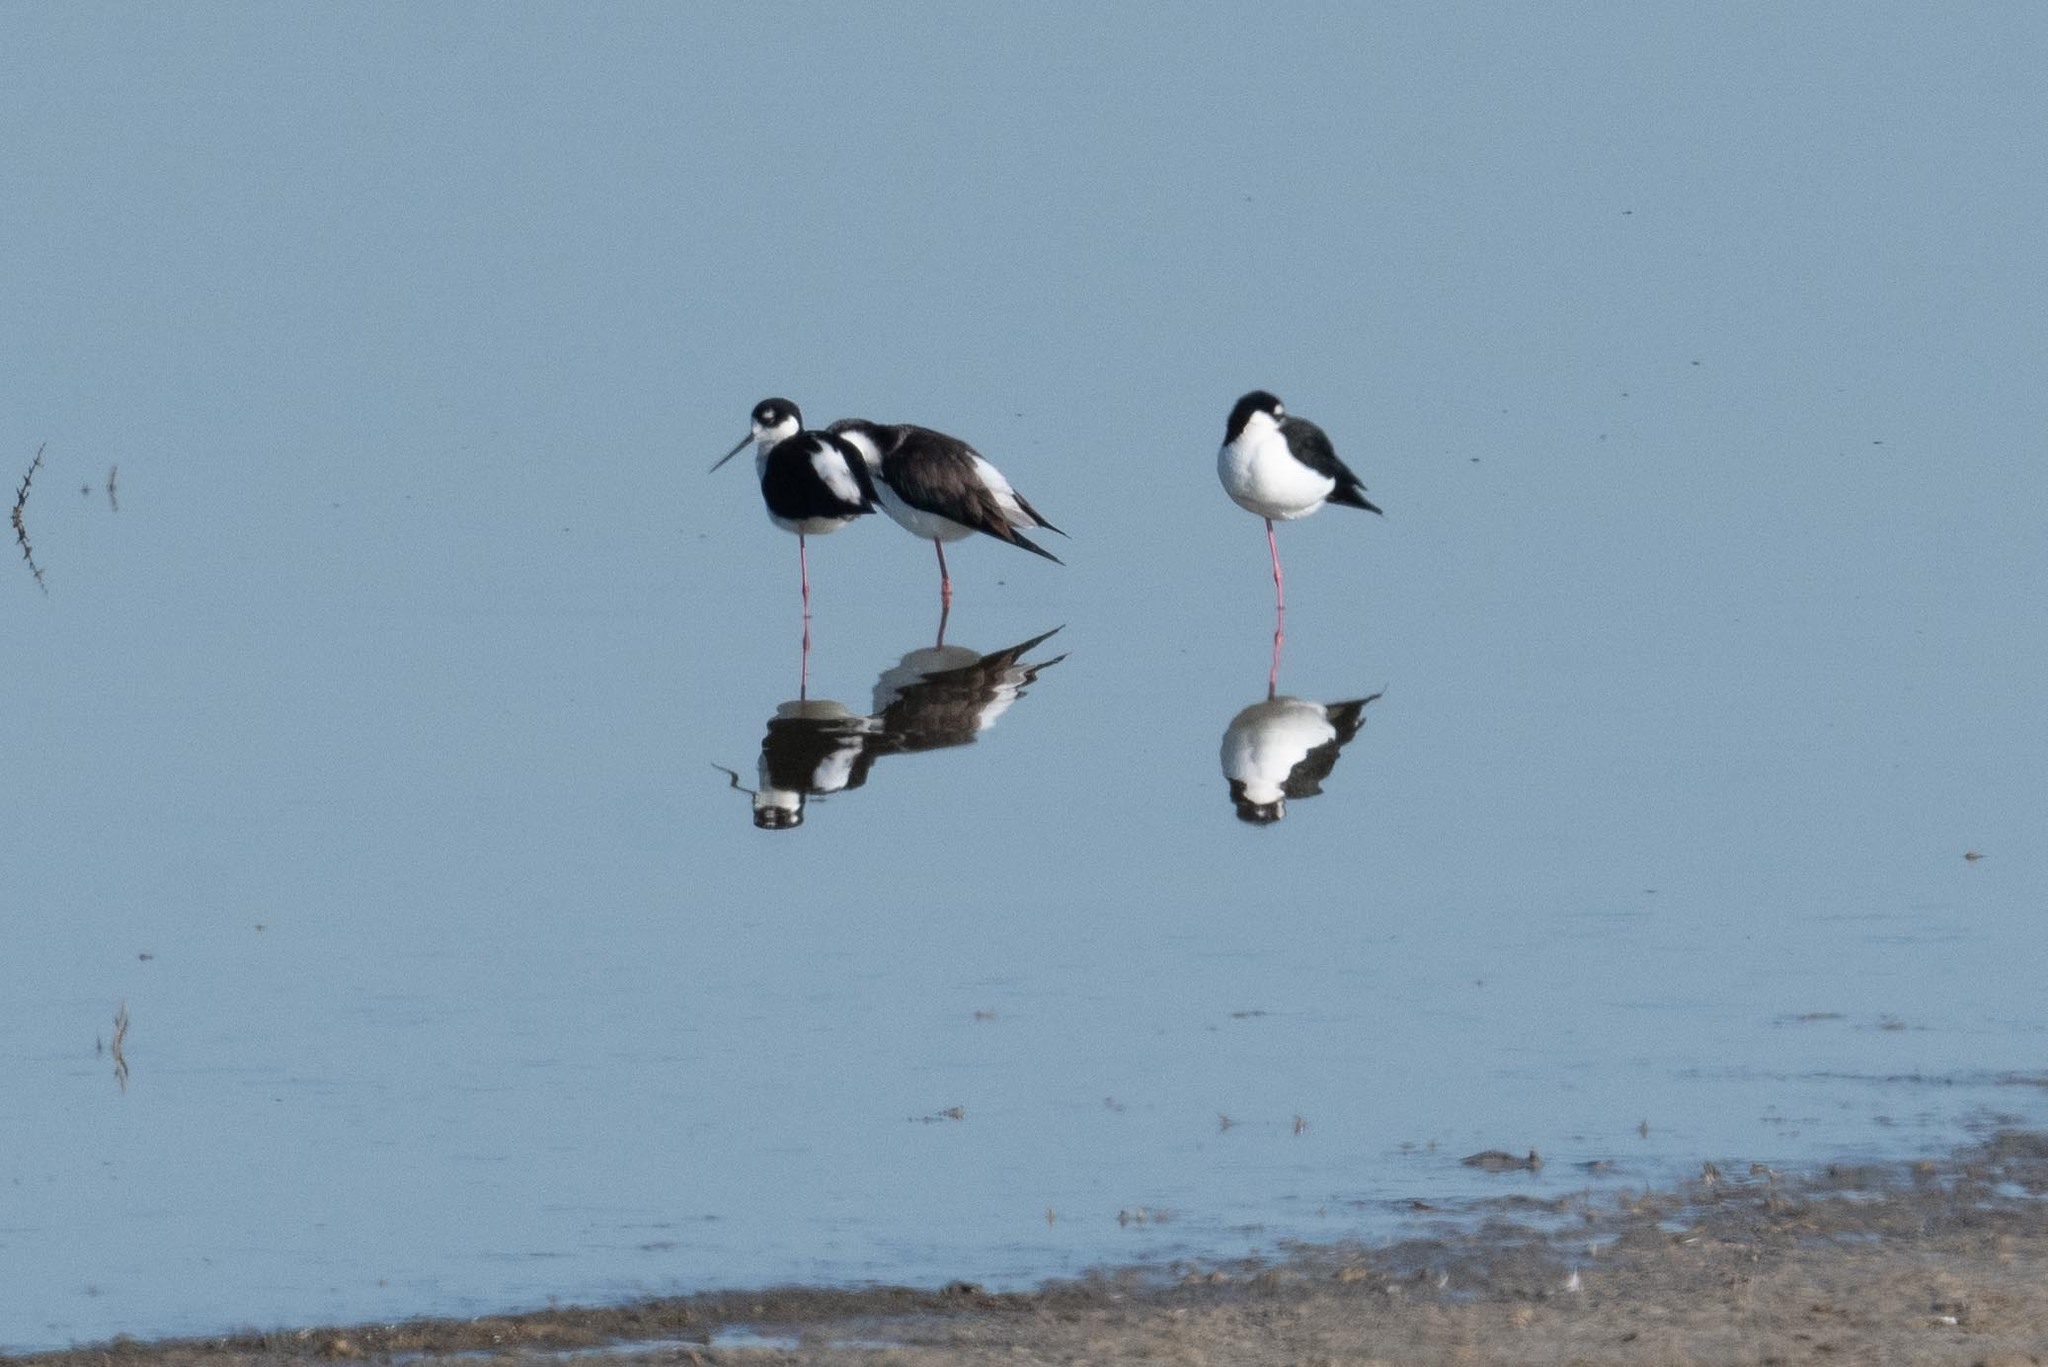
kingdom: Animalia
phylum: Chordata
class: Aves
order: Charadriiformes
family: Recurvirostridae
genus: Himantopus
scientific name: Himantopus mexicanus
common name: Black-necked stilt
